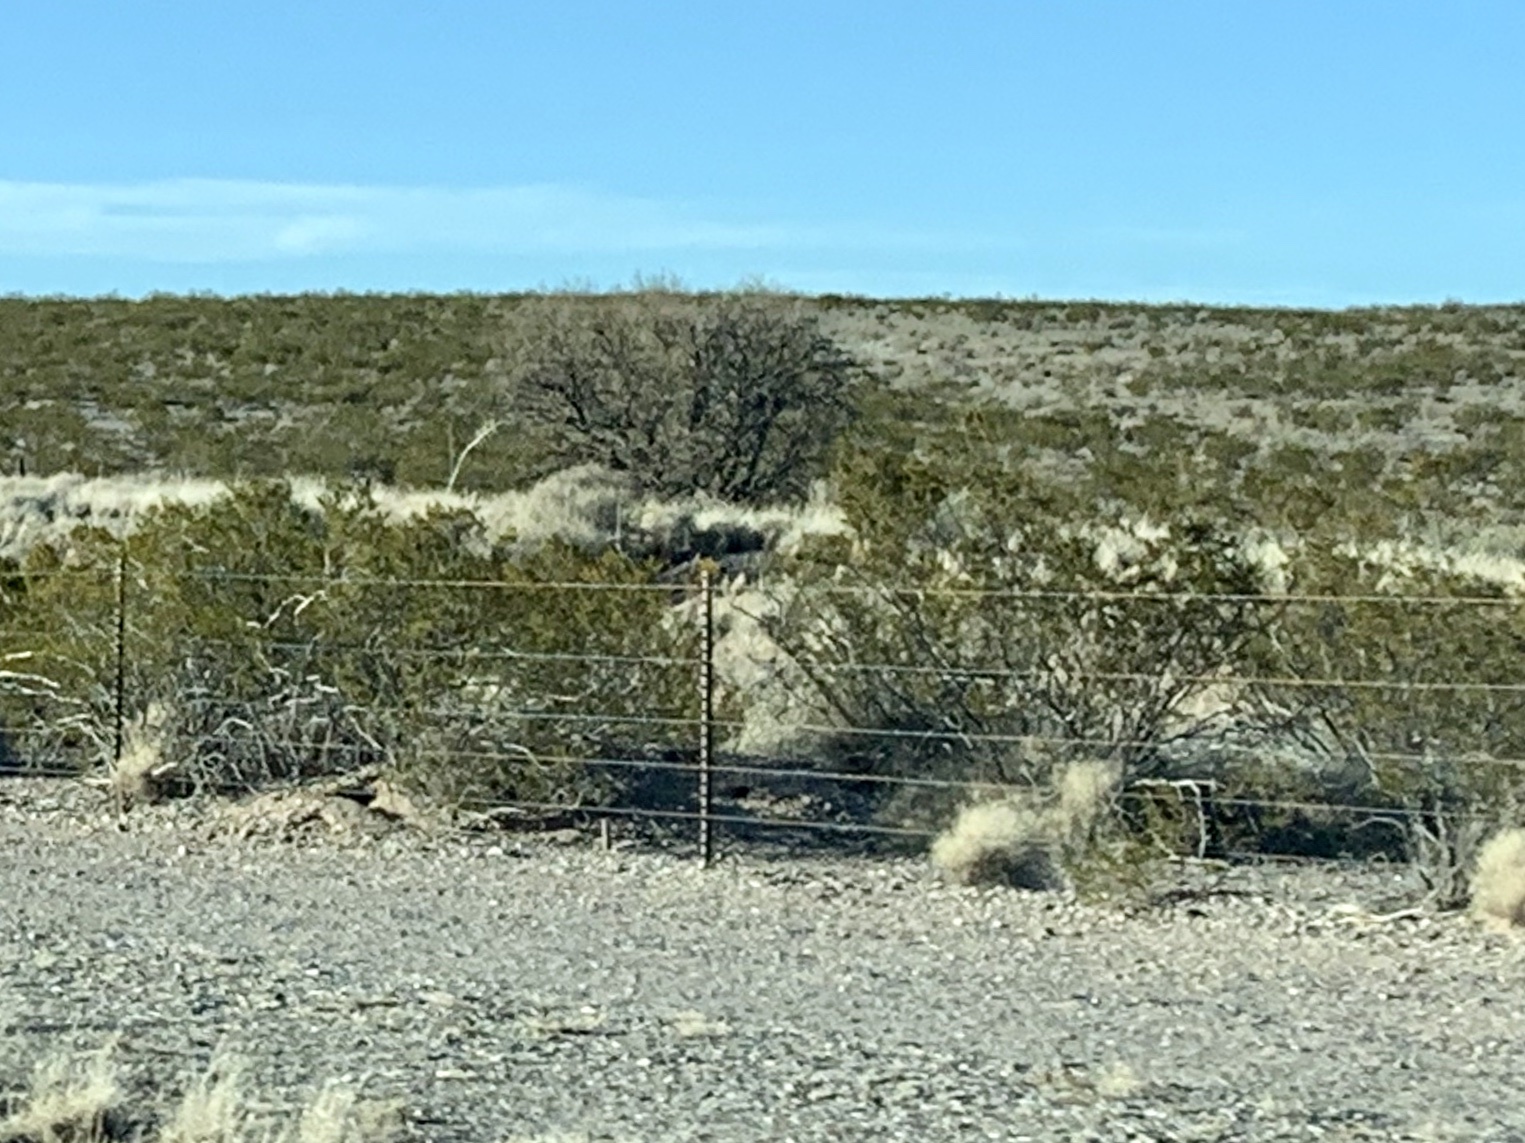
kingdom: Plantae
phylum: Tracheophyta
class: Magnoliopsida
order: Zygophyllales
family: Zygophyllaceae
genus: Larrea
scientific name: Larrea tridentata
